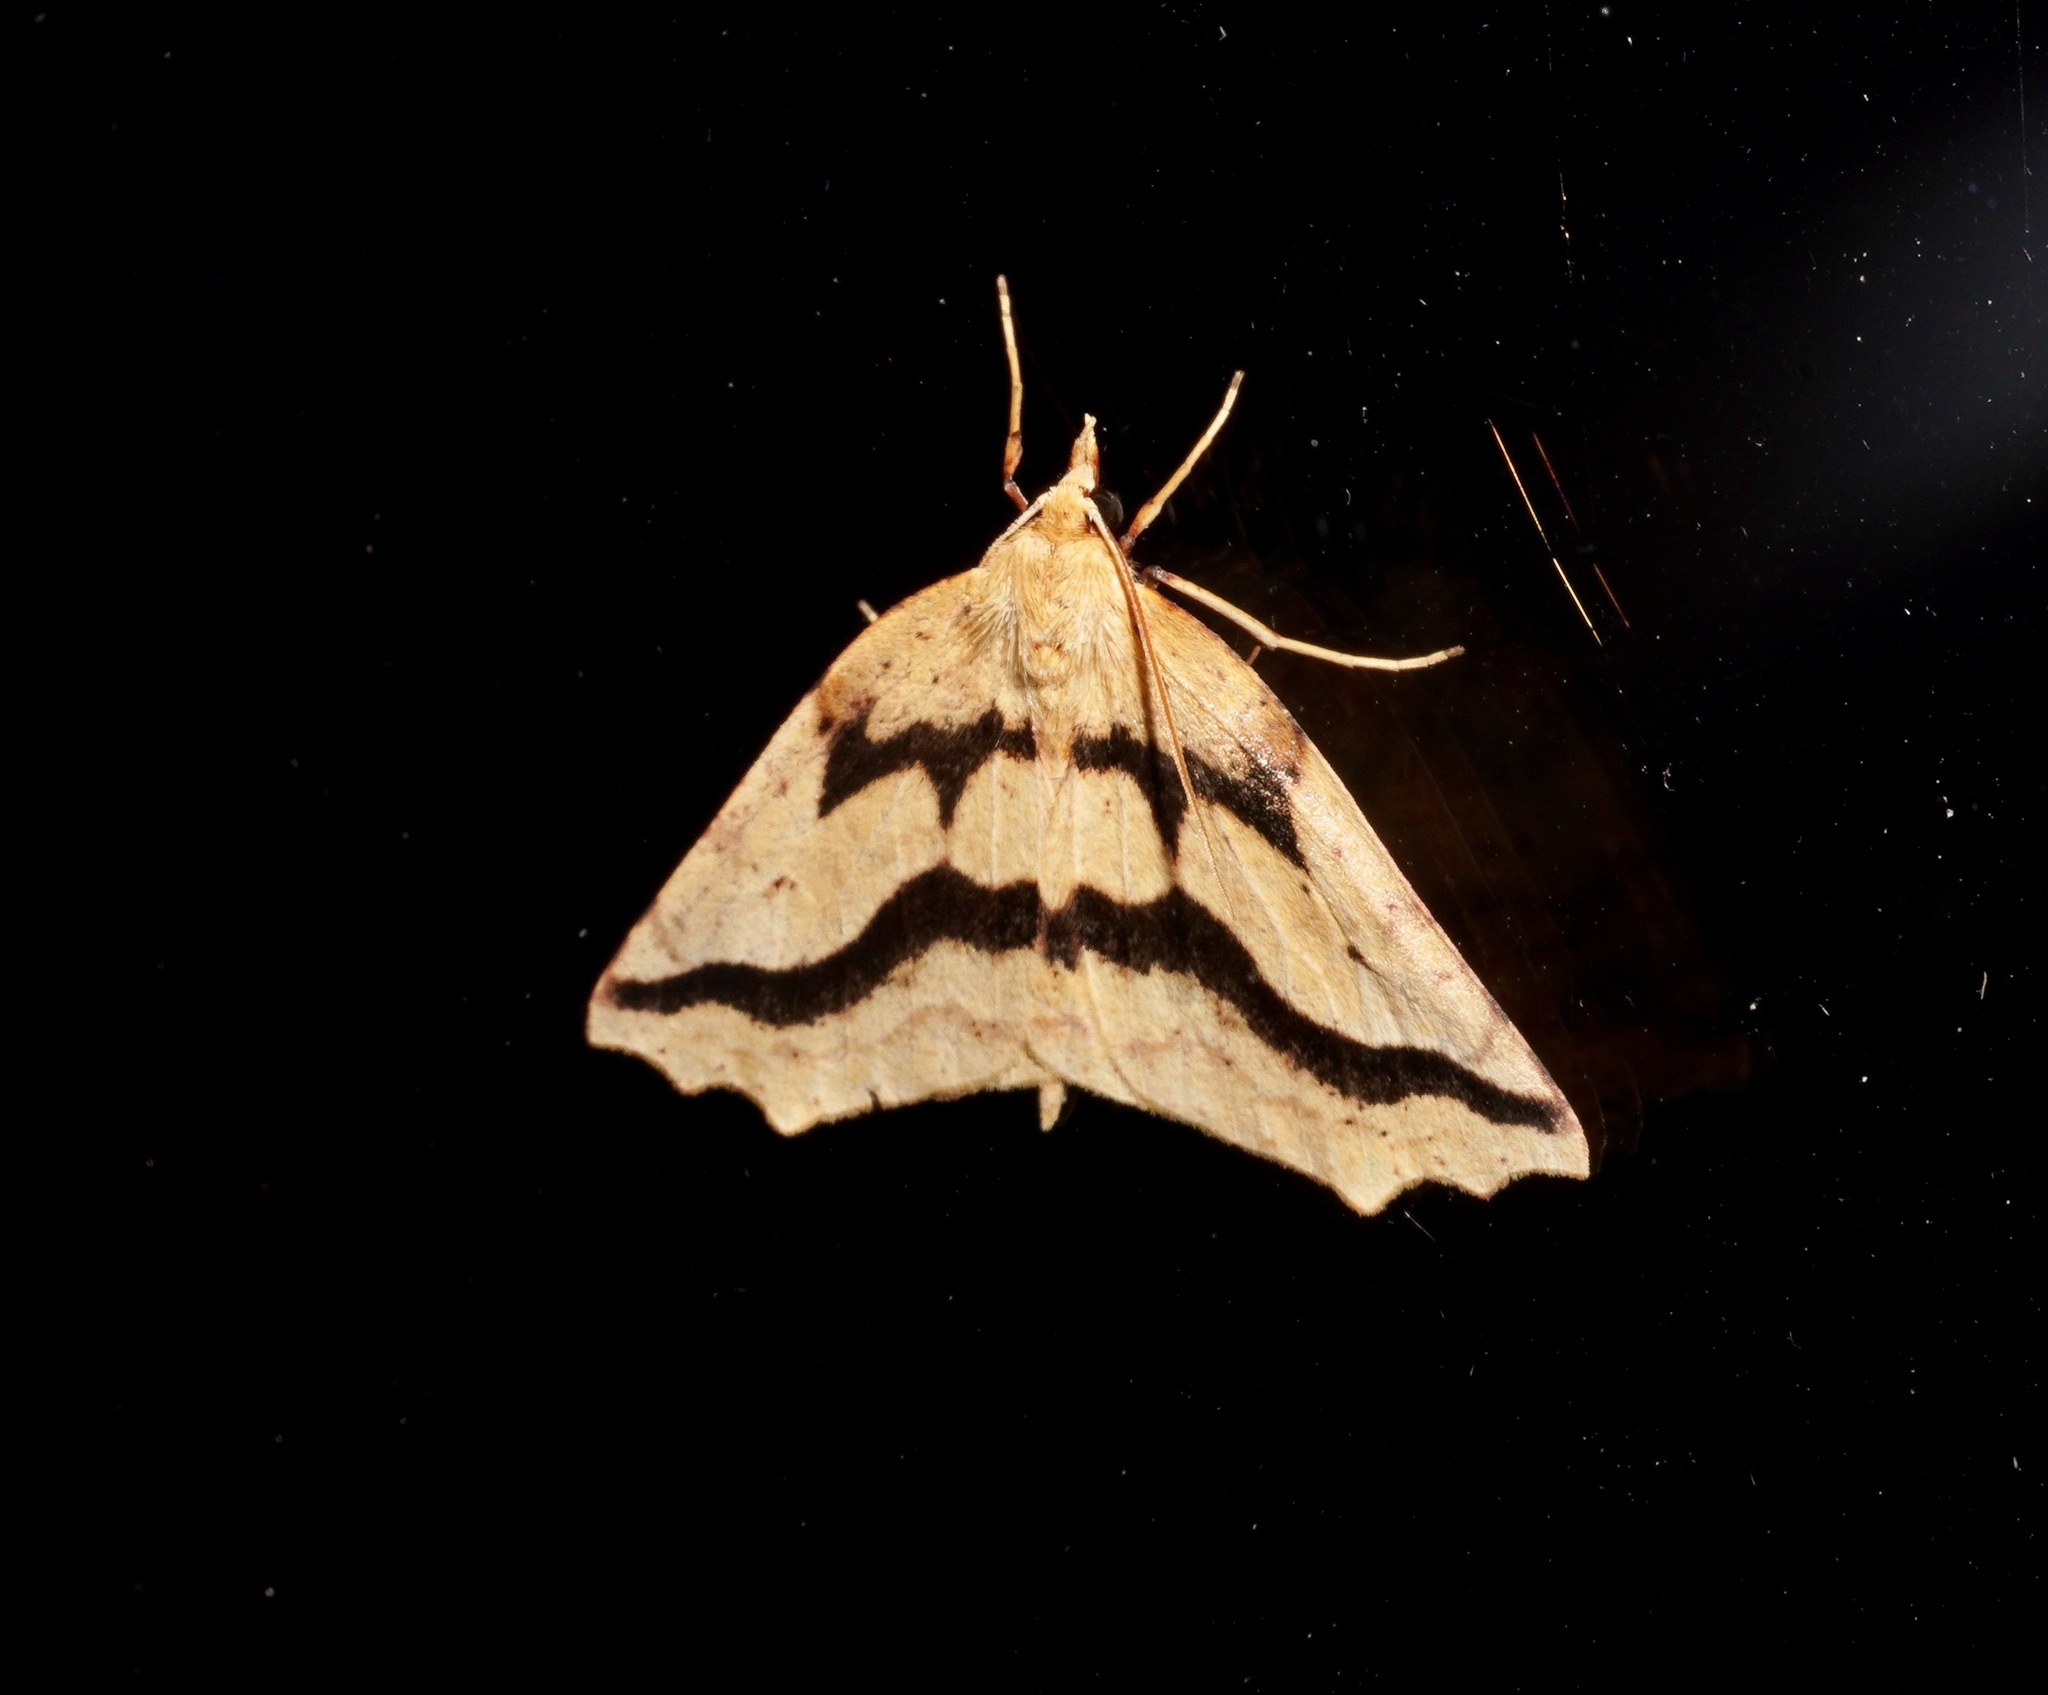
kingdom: Animalia
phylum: Arthropoda
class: Insecta
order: Lepidoptera
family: Geometridae
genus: Ischalis
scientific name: Ischalis variabilis
